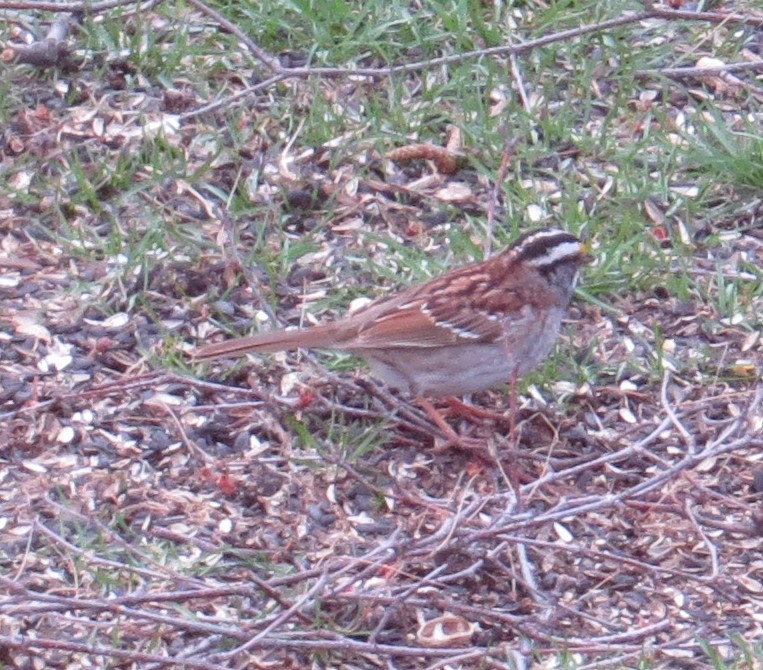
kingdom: Animalia
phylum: Chordata
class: Aves
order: Passeriformes
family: Passerellidae
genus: Zonotrichia
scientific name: Zonotrichia albicollis
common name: White-throated sparrow
